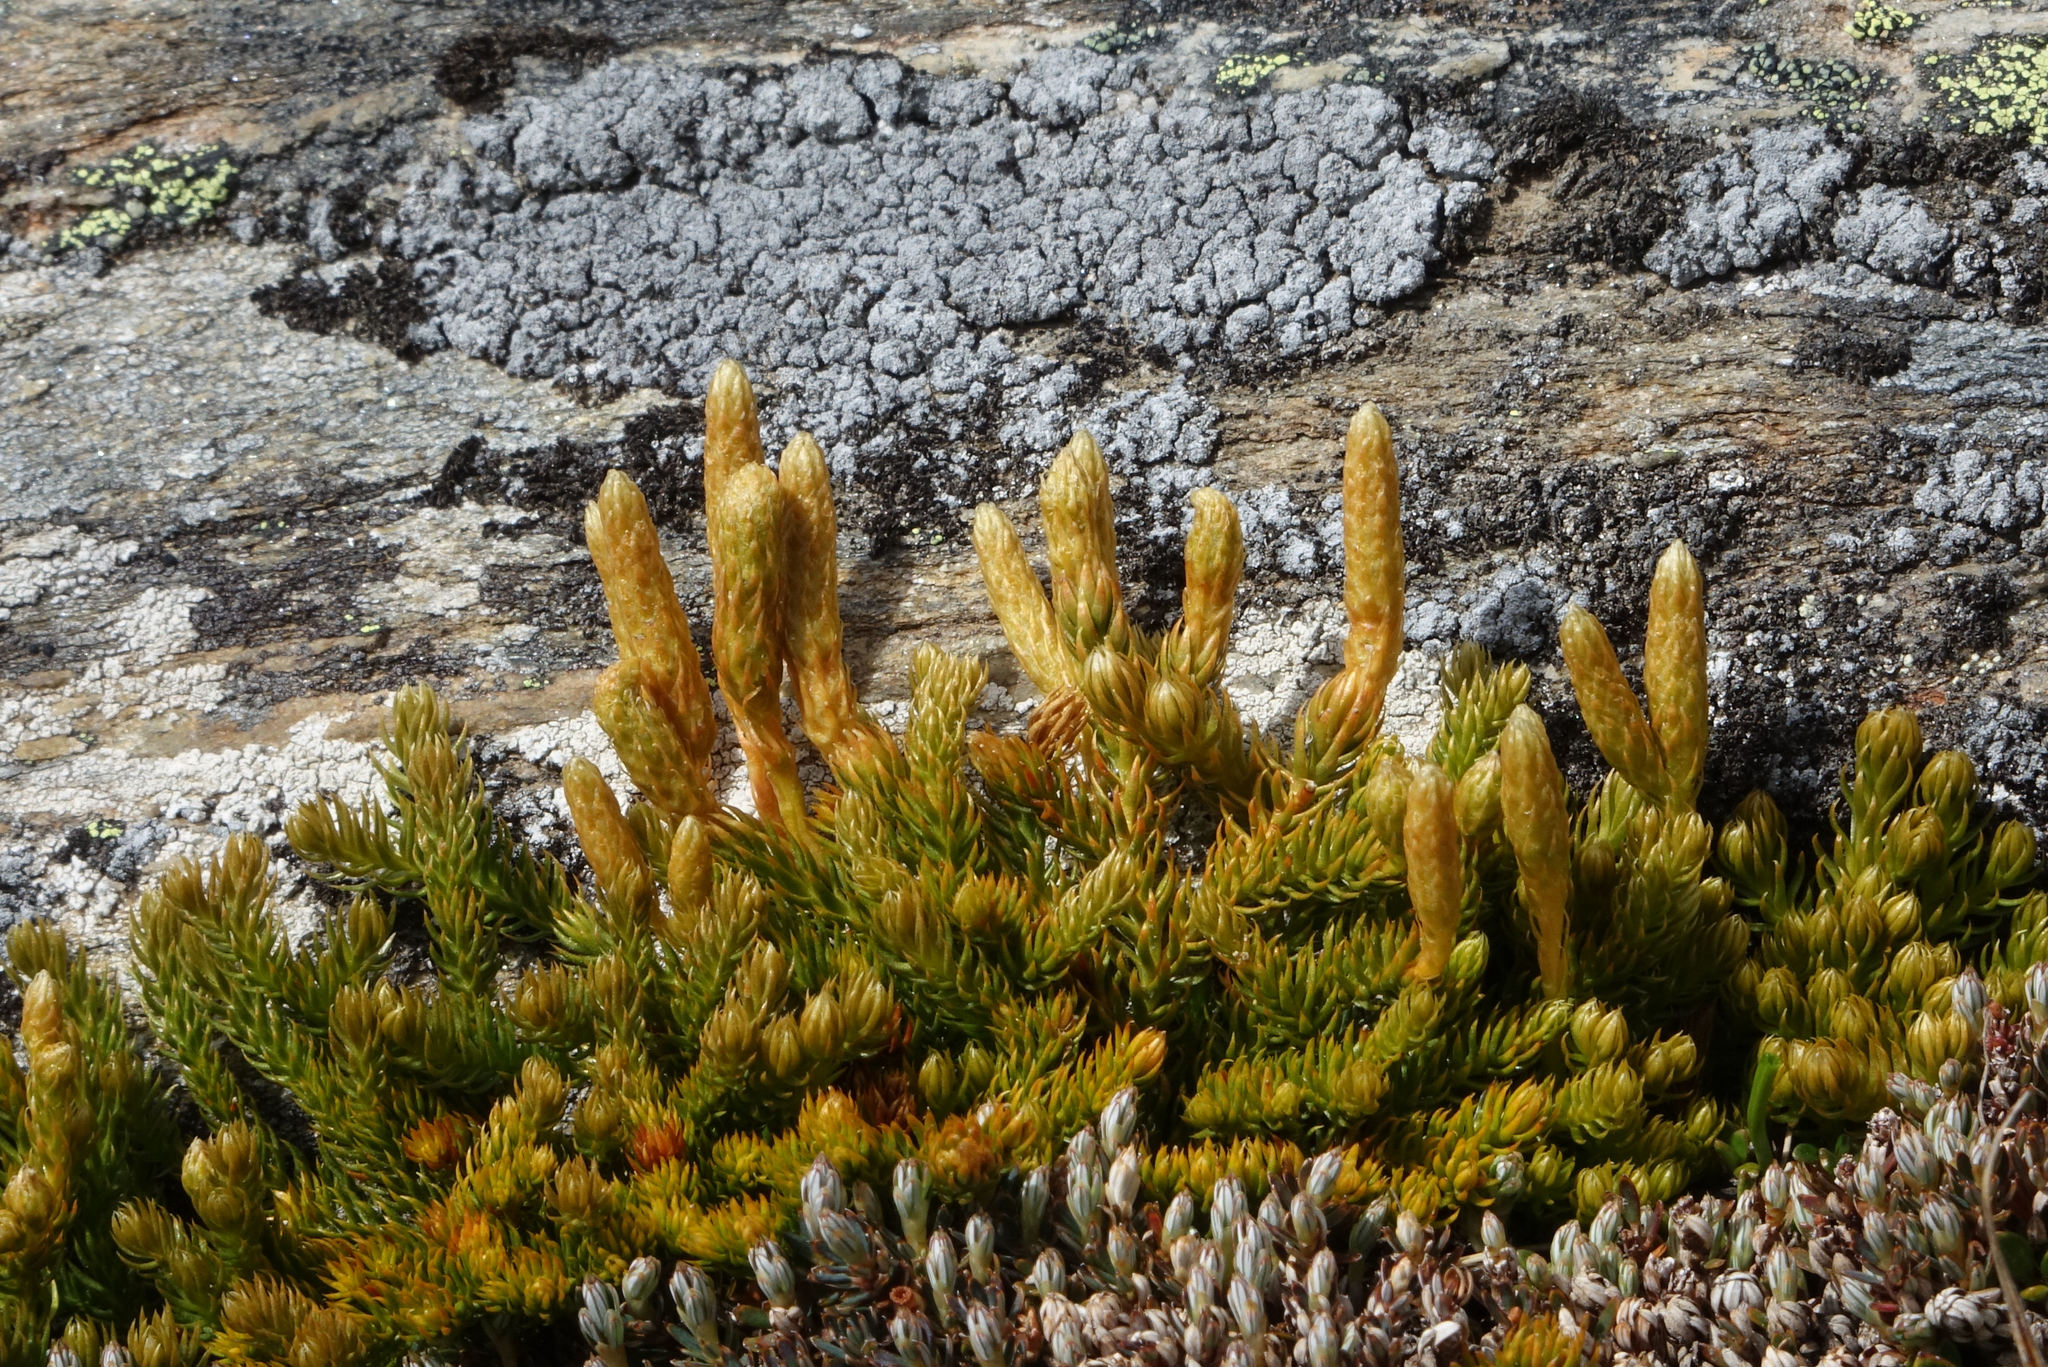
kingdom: Plantae
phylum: Tracheophyta
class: Lycopodiopsida
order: Lycopodiales
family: Lycopodiaceae
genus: Austrolycopodium
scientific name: Austrolycopodium fastigiatum
